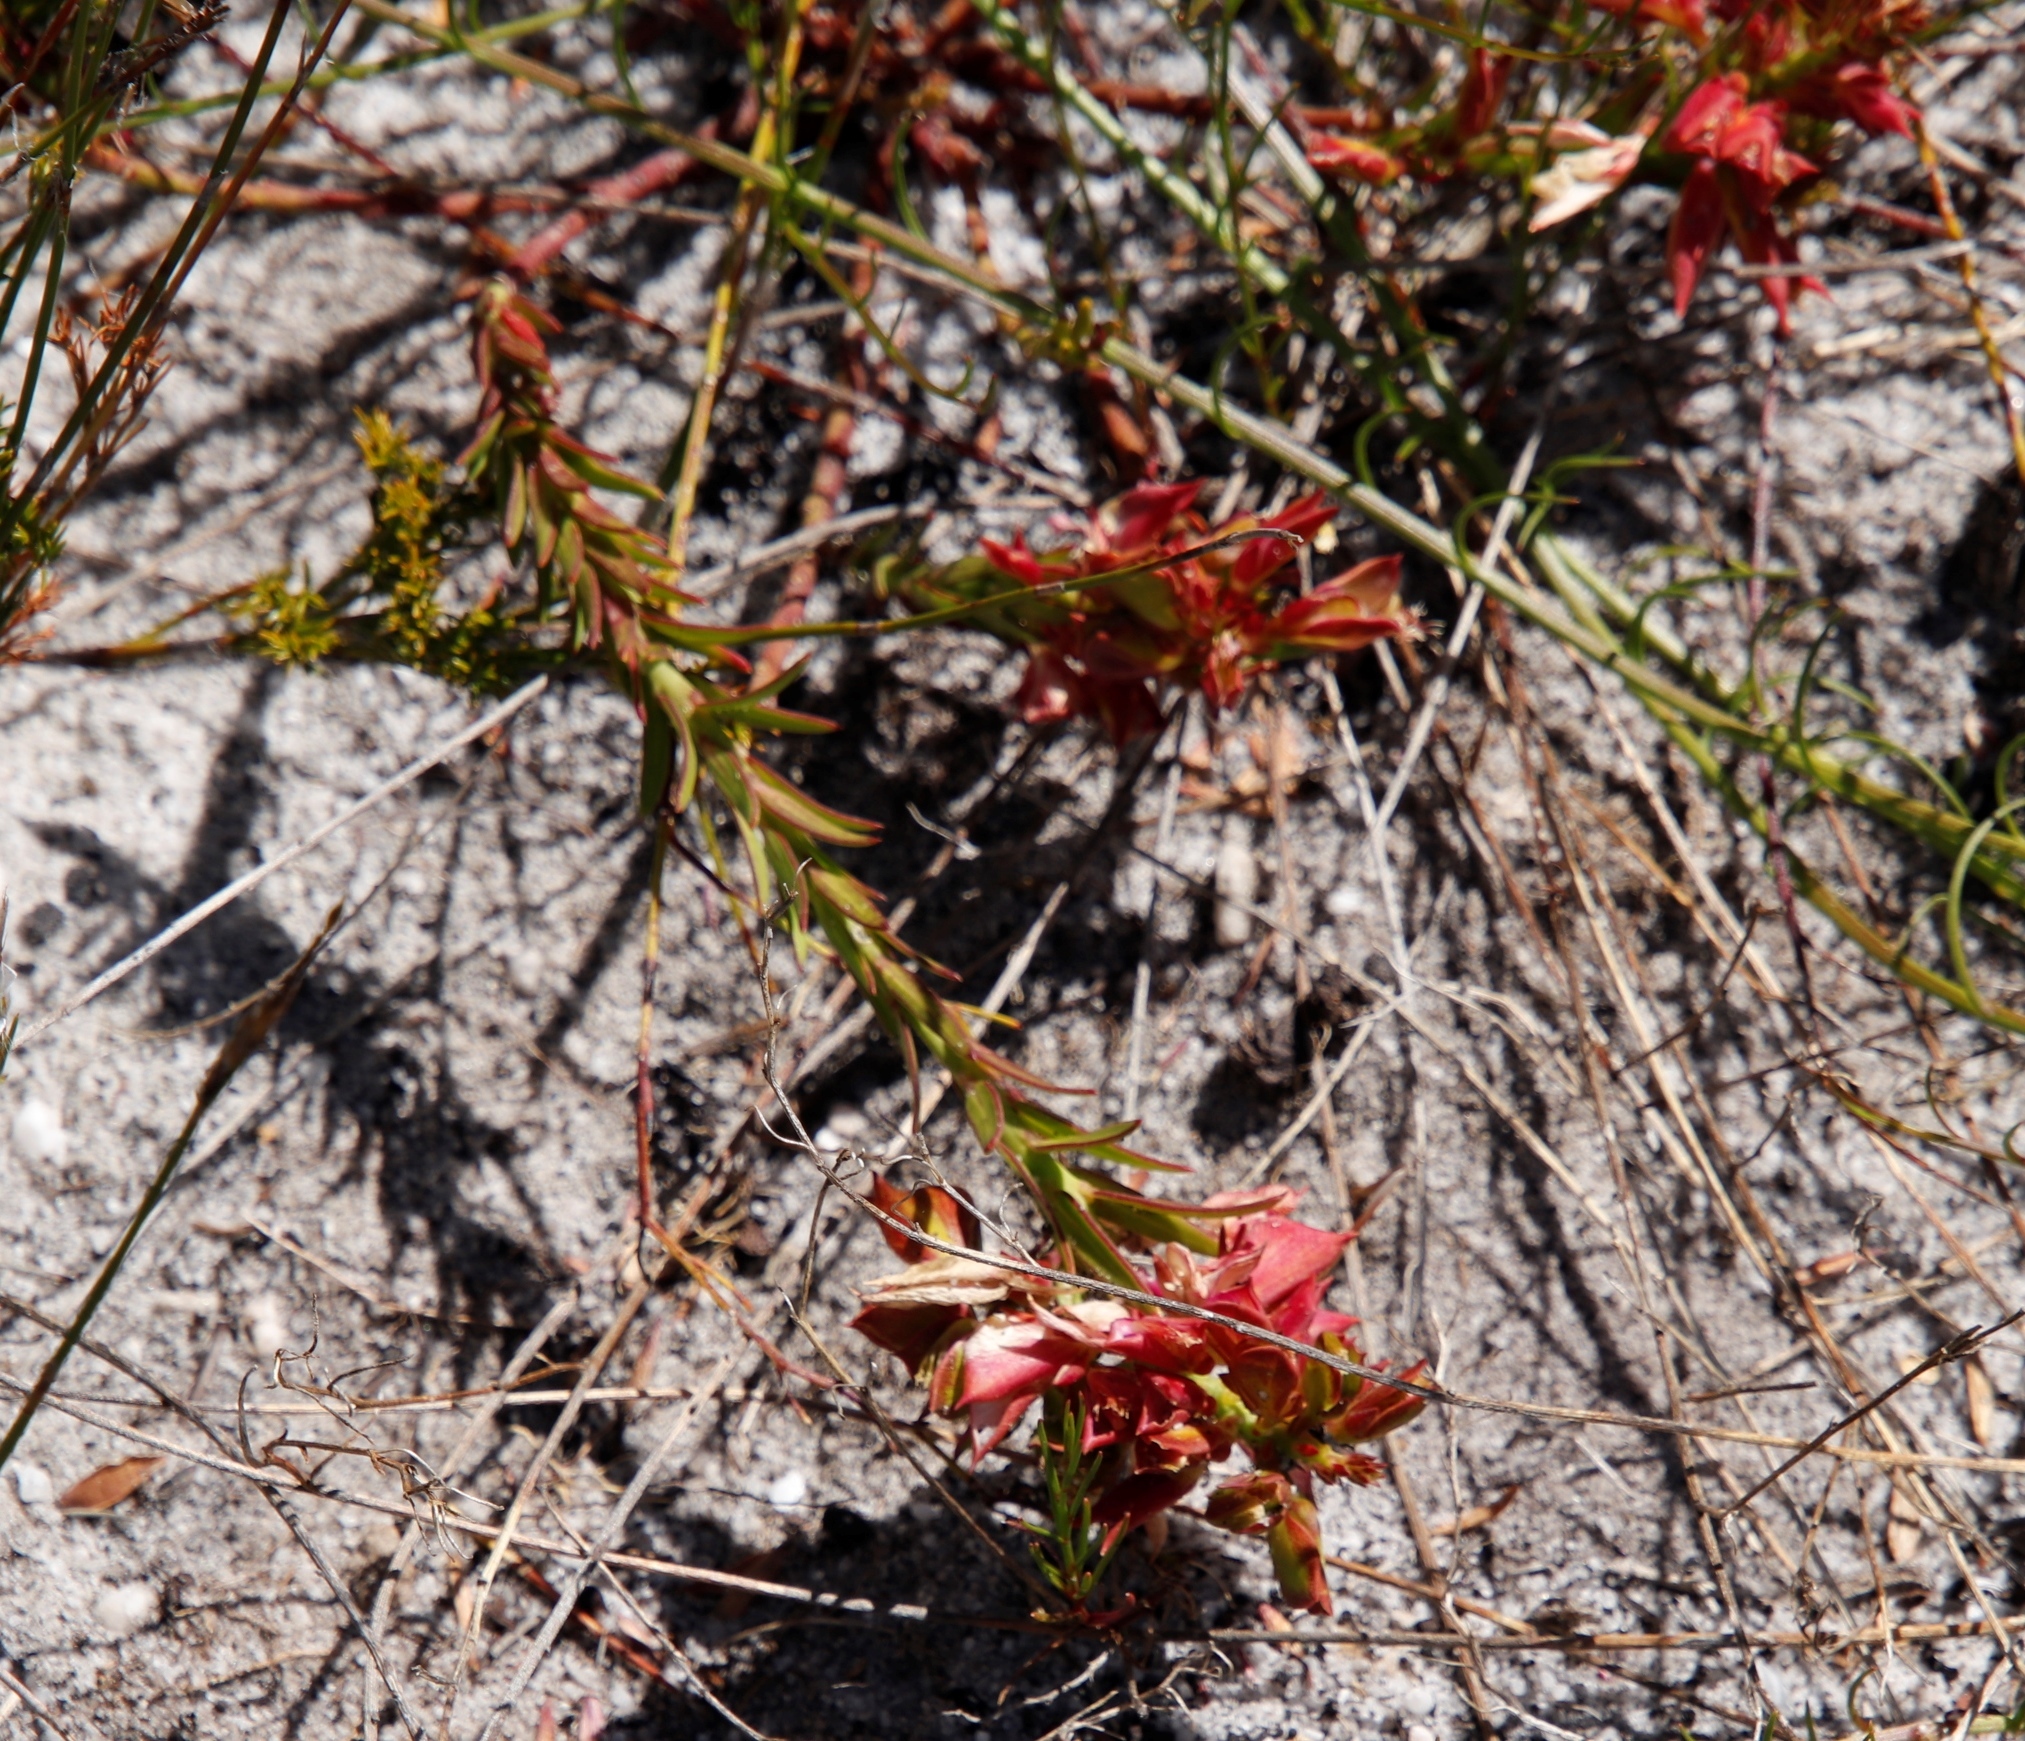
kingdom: Plantae
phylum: Tracheophyta
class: Magnoliopsida
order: Fabales
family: Polygalaceae
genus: Polygala
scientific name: Polygala bracteolata
